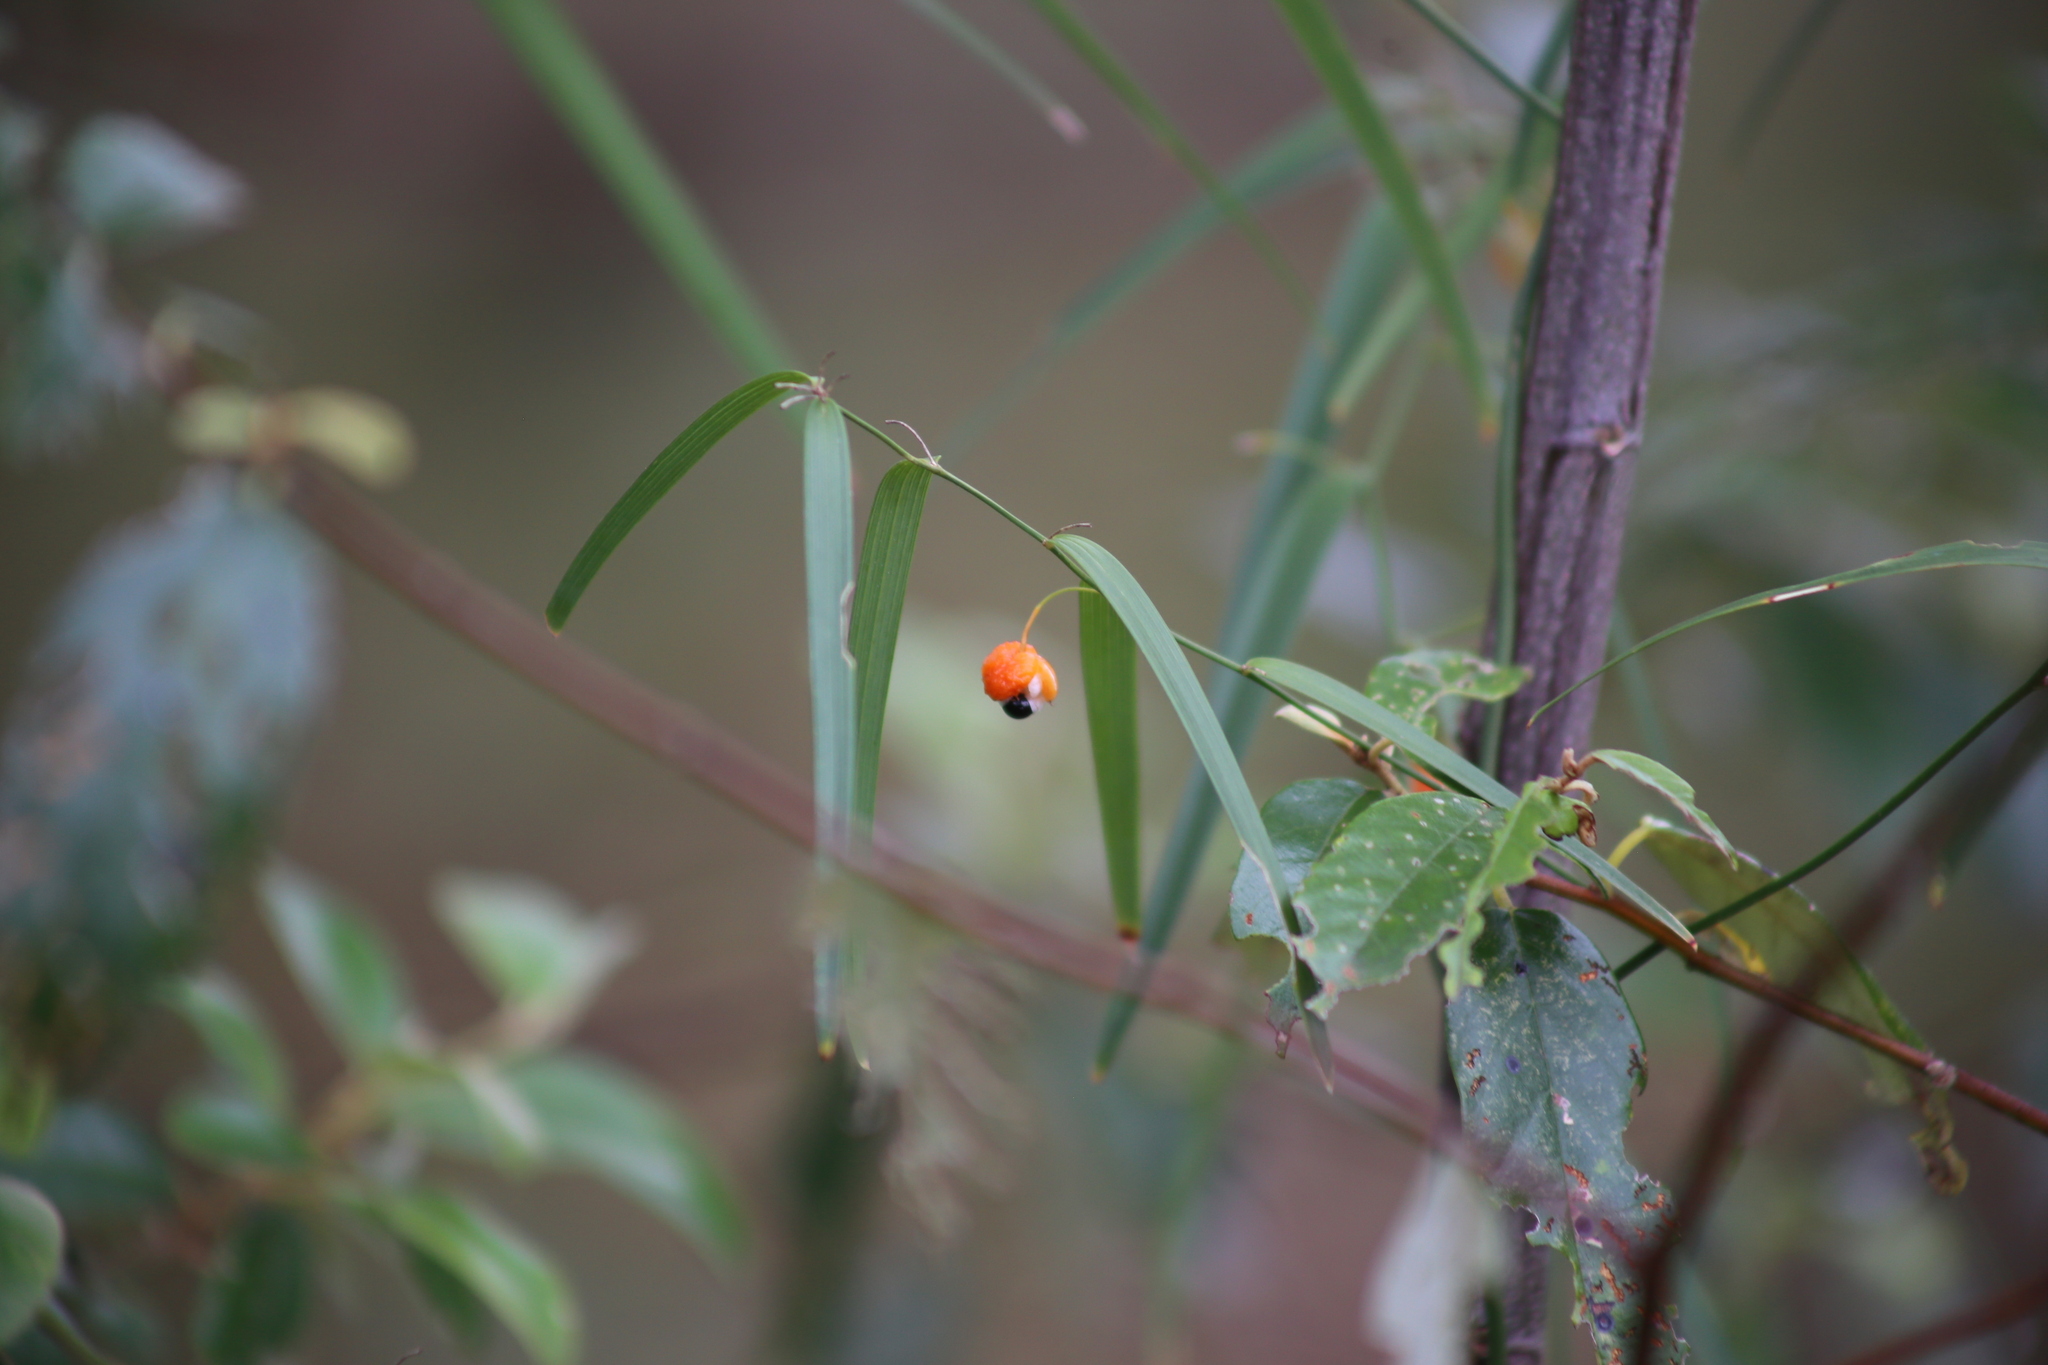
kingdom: Plantae
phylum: Tracheophyta
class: Liliopsida
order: Asparagales
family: Asparagaceae
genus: Eustrephus
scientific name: Eustrephus latifolius
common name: Orangevine
